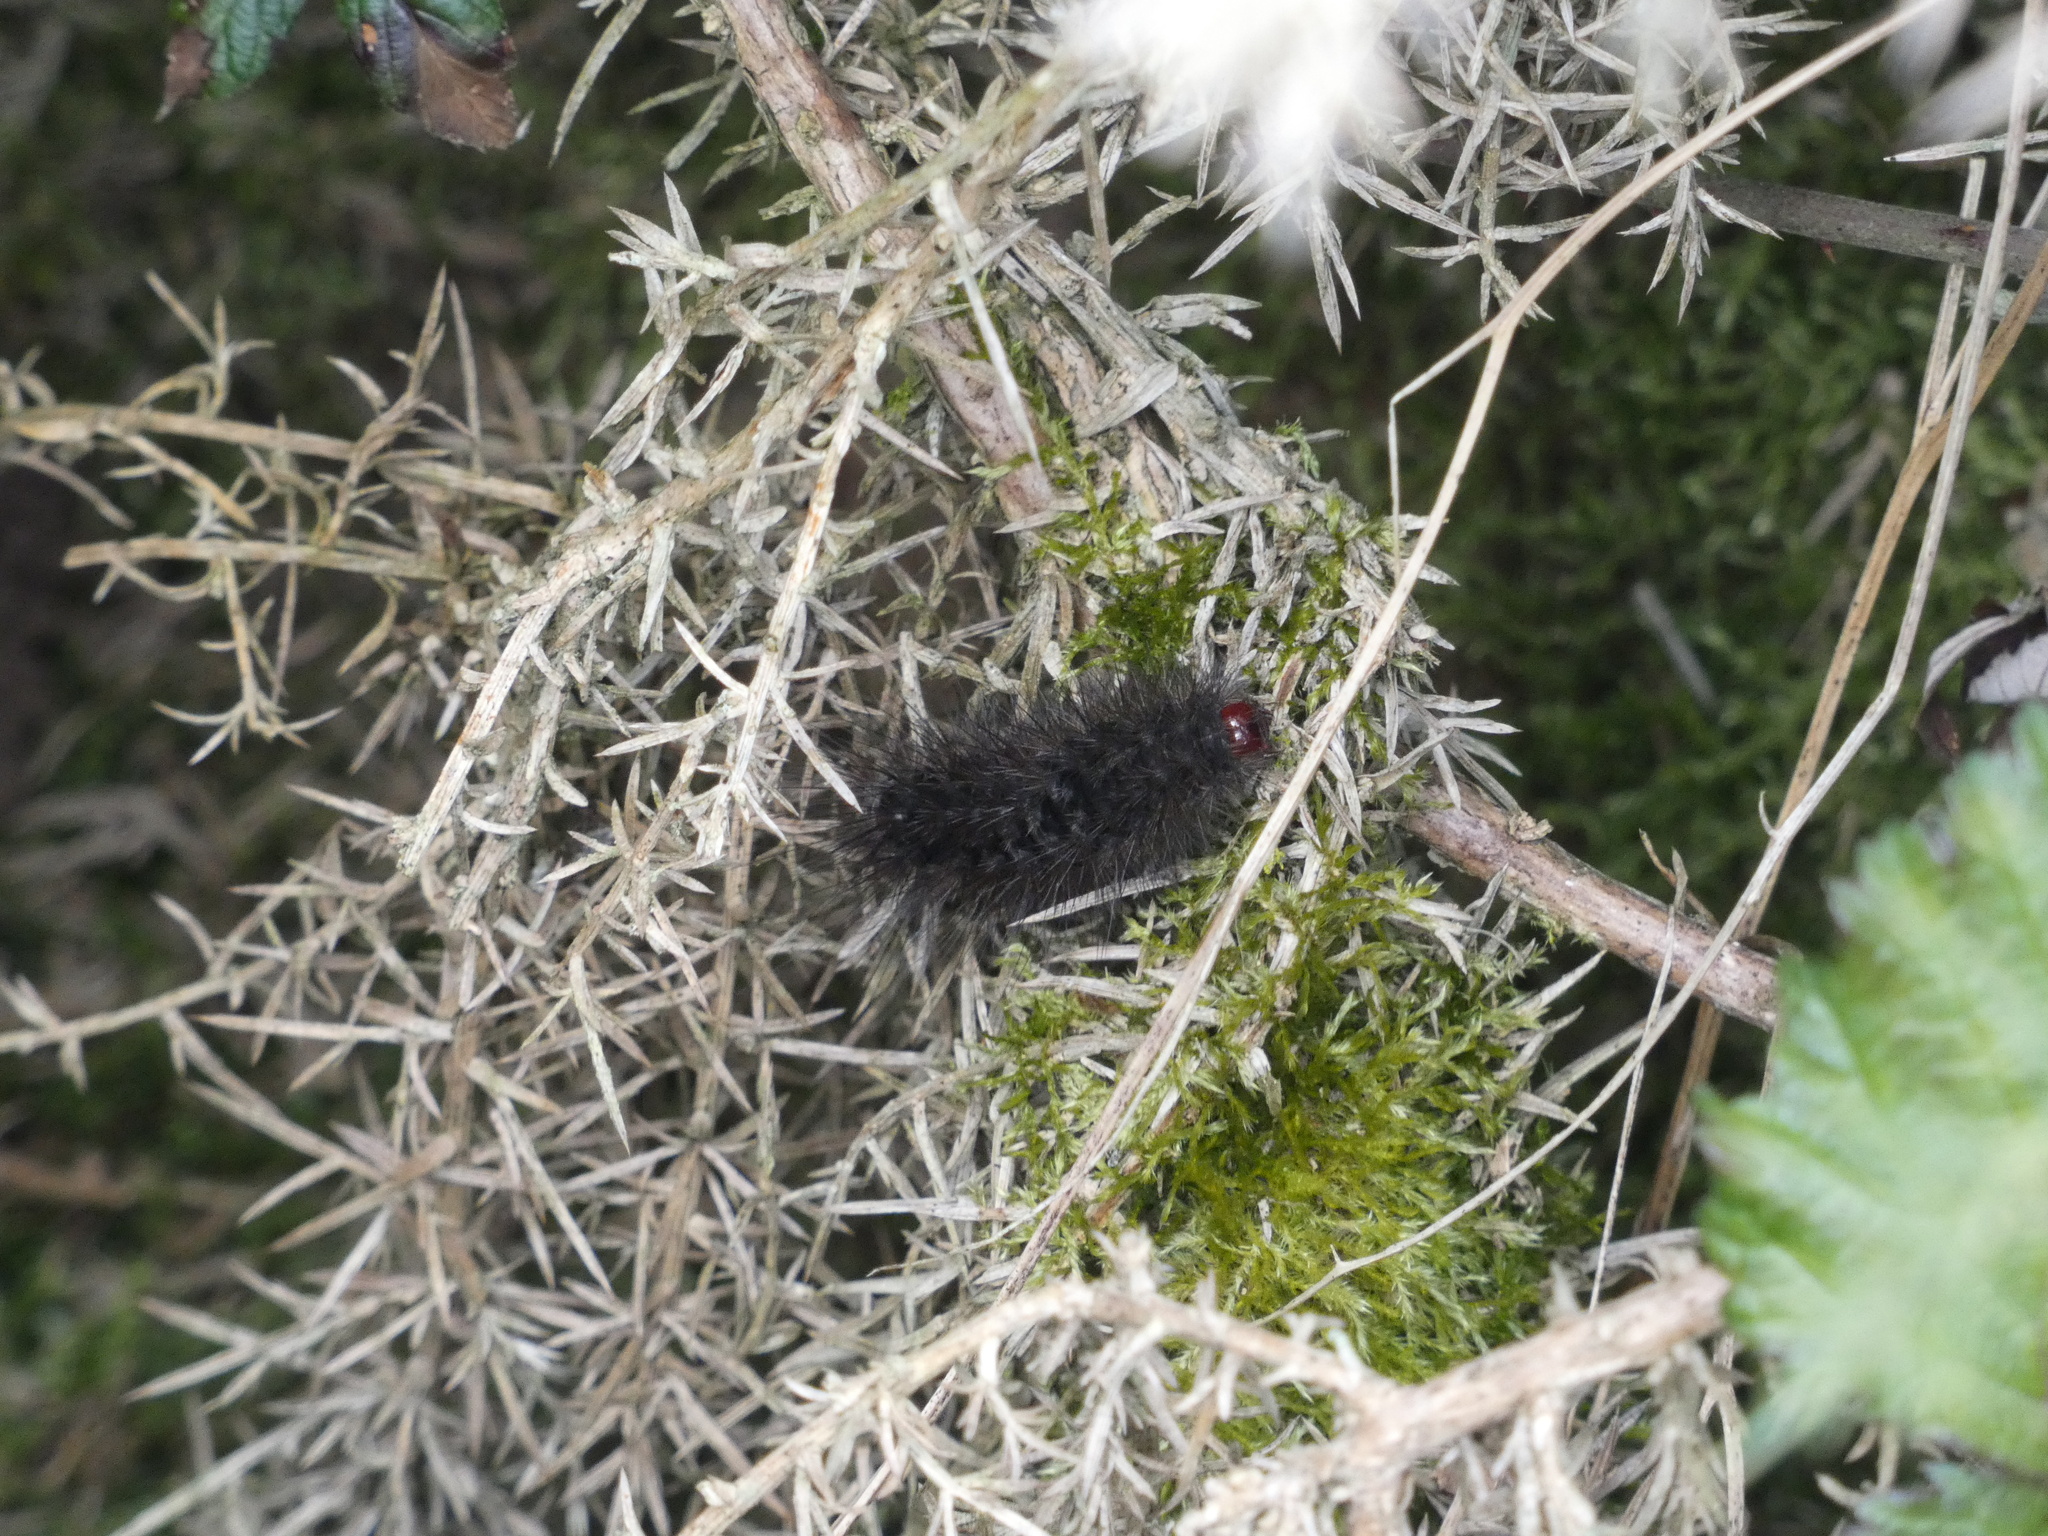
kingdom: Animalia
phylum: Arthropoda
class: Insecta
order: Lepidoptera
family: Erebidae
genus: Epicallia
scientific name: Epicallia villica
